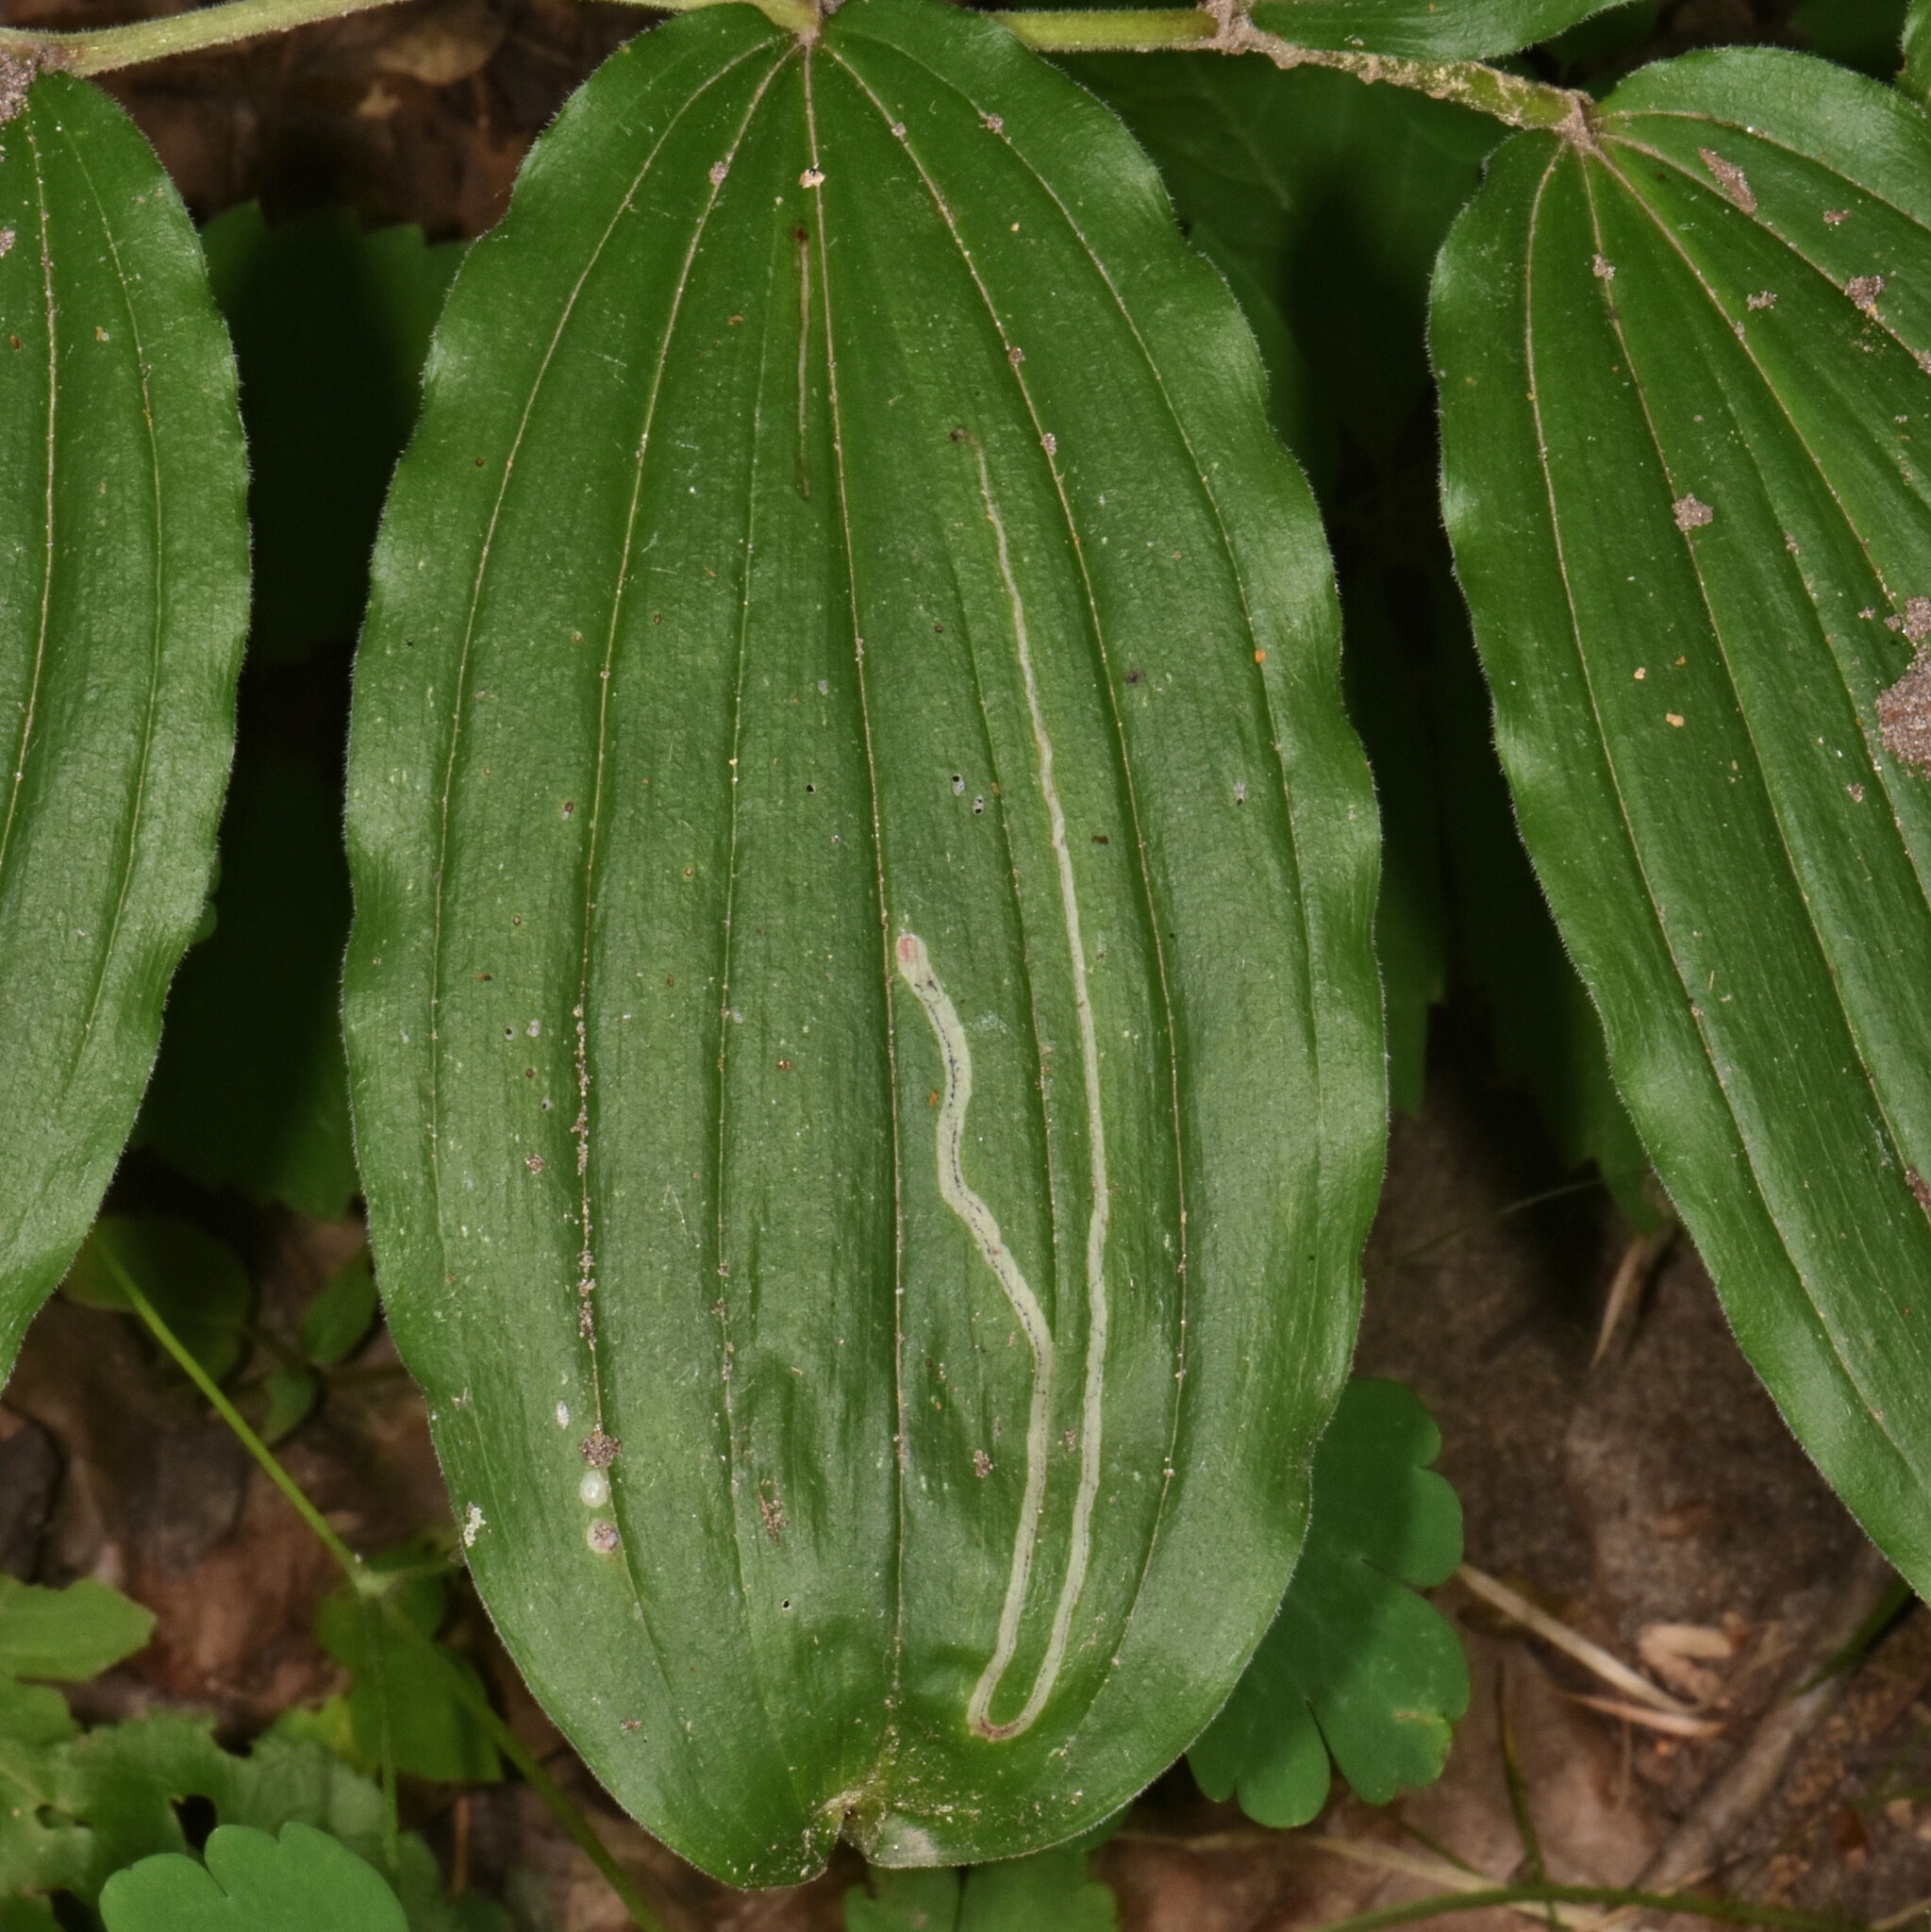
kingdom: Animalia
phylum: Arthropoda
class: Insecta
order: Diptera
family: Agromyzidae
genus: Liriomyza
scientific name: Liriomyza smilacinae
